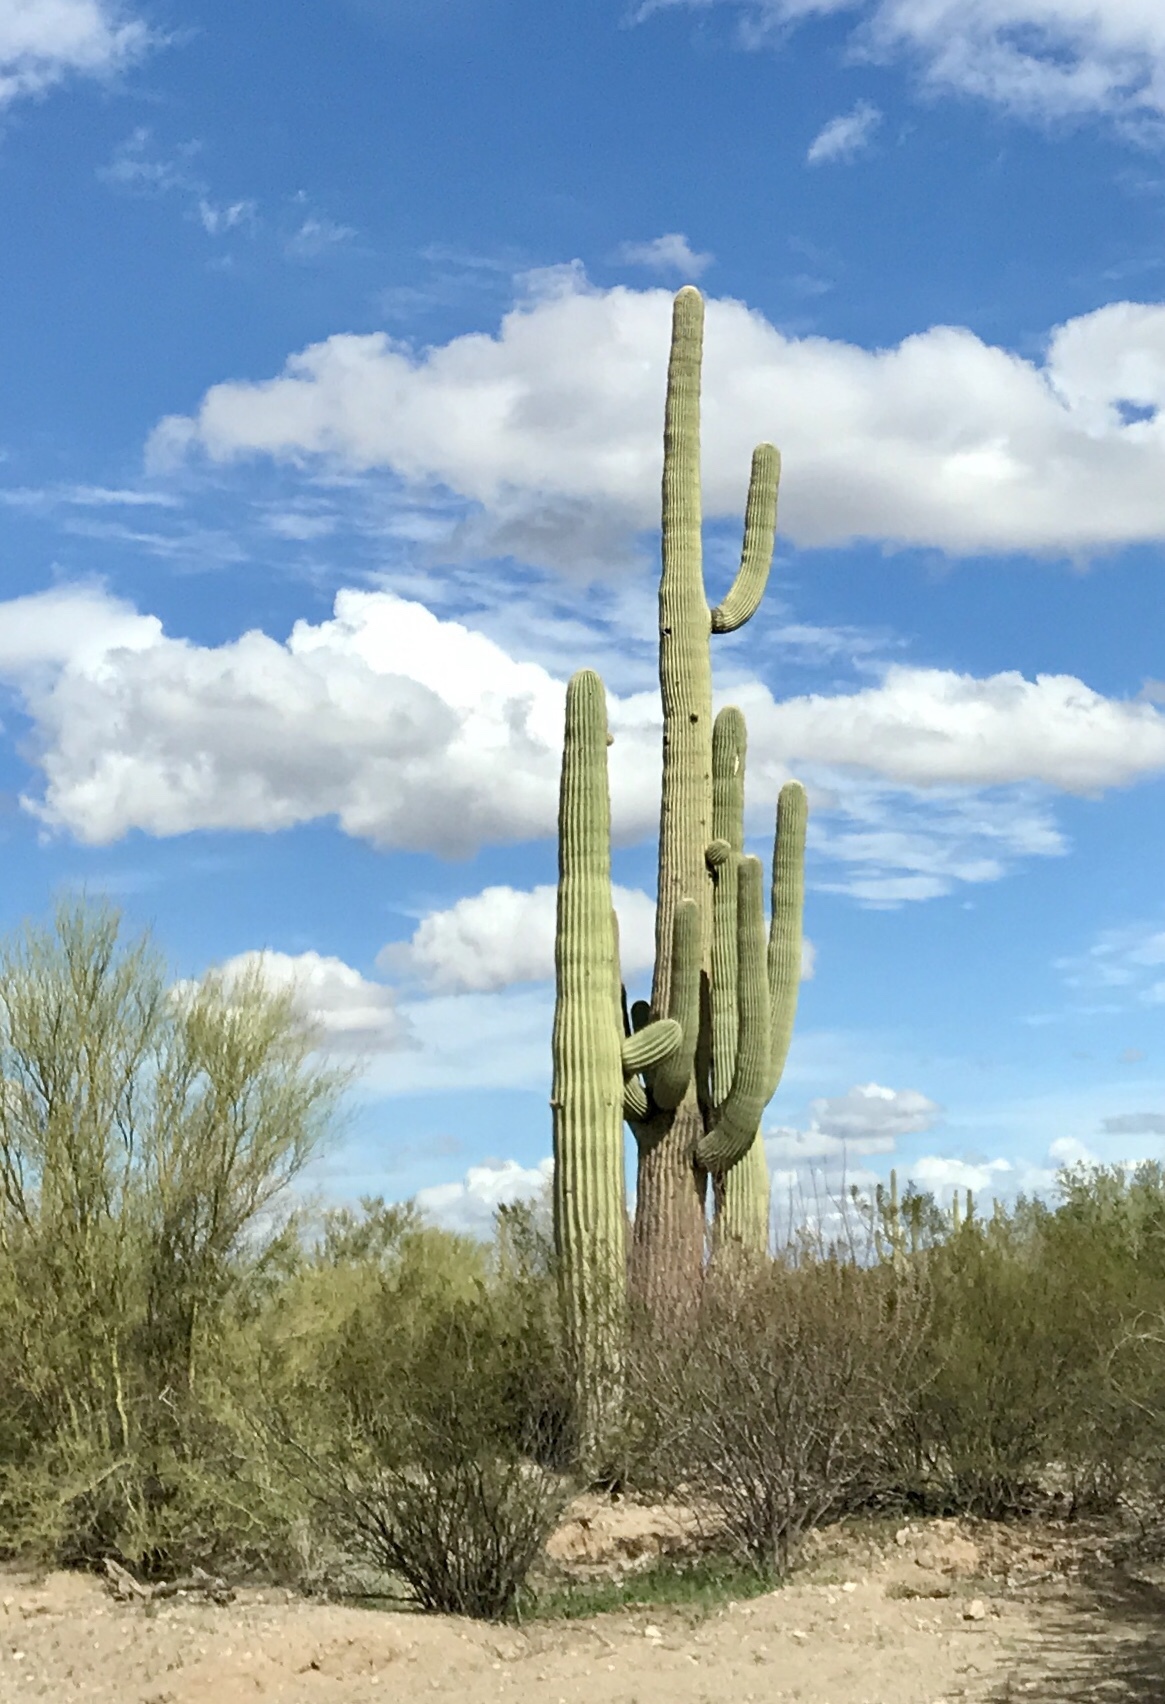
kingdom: Plantae
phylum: Tracheophyta
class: Magnoliopsida
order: Caryophyllales
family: Cactaceae
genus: Carnegiea
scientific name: Carnegiea gigantea
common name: Saguaro
